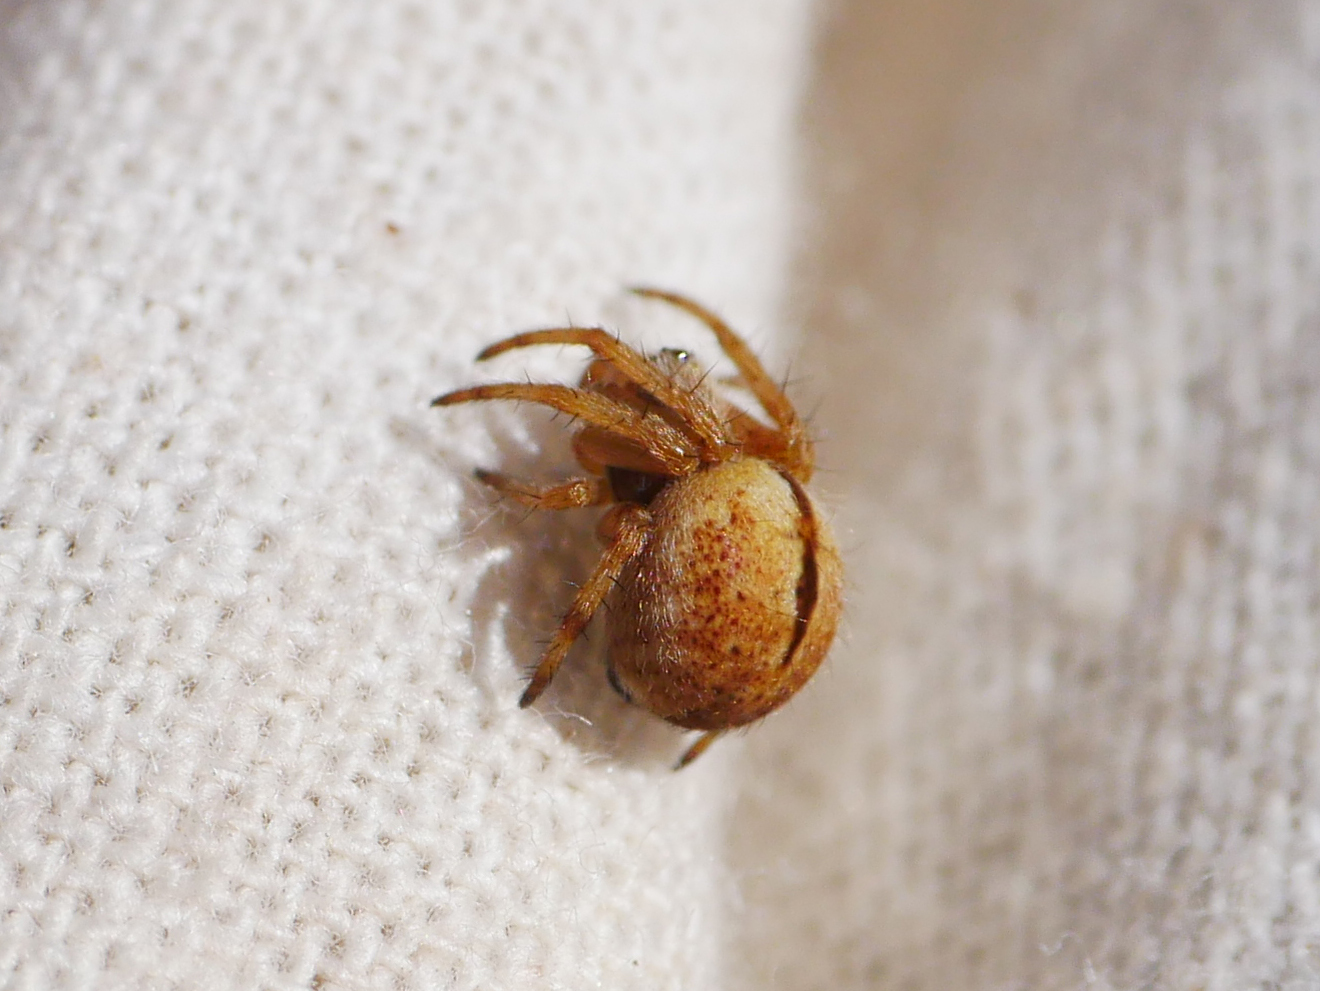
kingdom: Animalia
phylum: Arthropoda
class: Arachnida
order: Araneae
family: Araneidae
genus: Agalenatea
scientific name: Agalenatea redii
